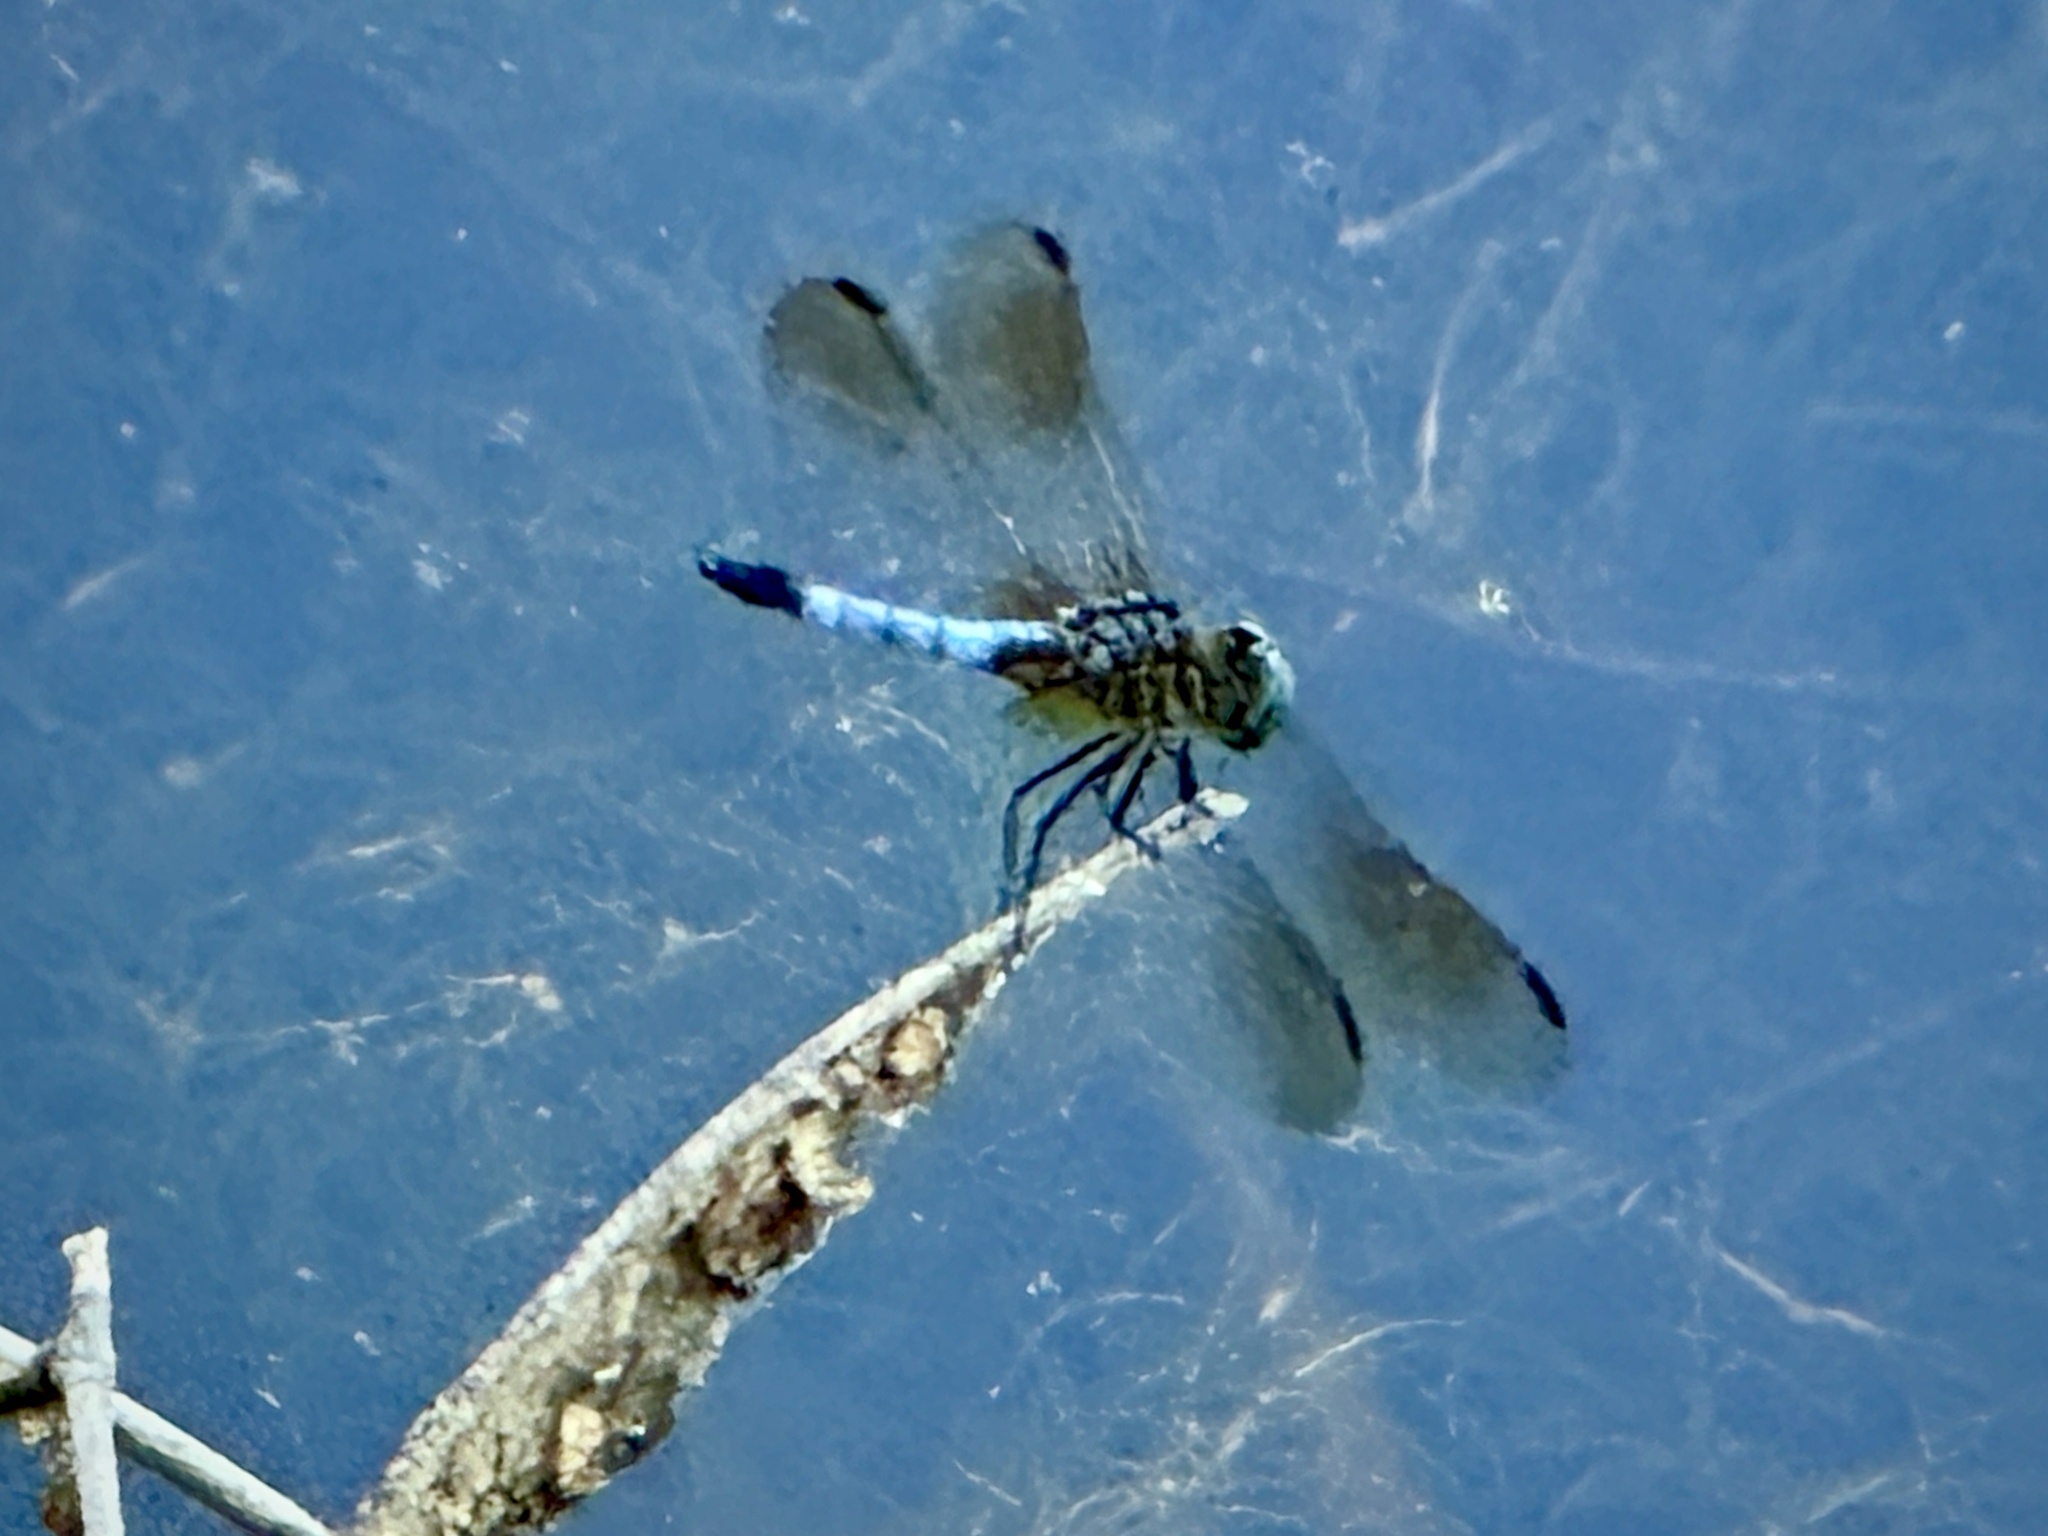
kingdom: Animalia
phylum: Arthropoda
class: Insecta
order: Odonata
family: Libellulidae
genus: Pachydiplax
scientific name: Pachydiplax longipennis
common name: Blue dasher
